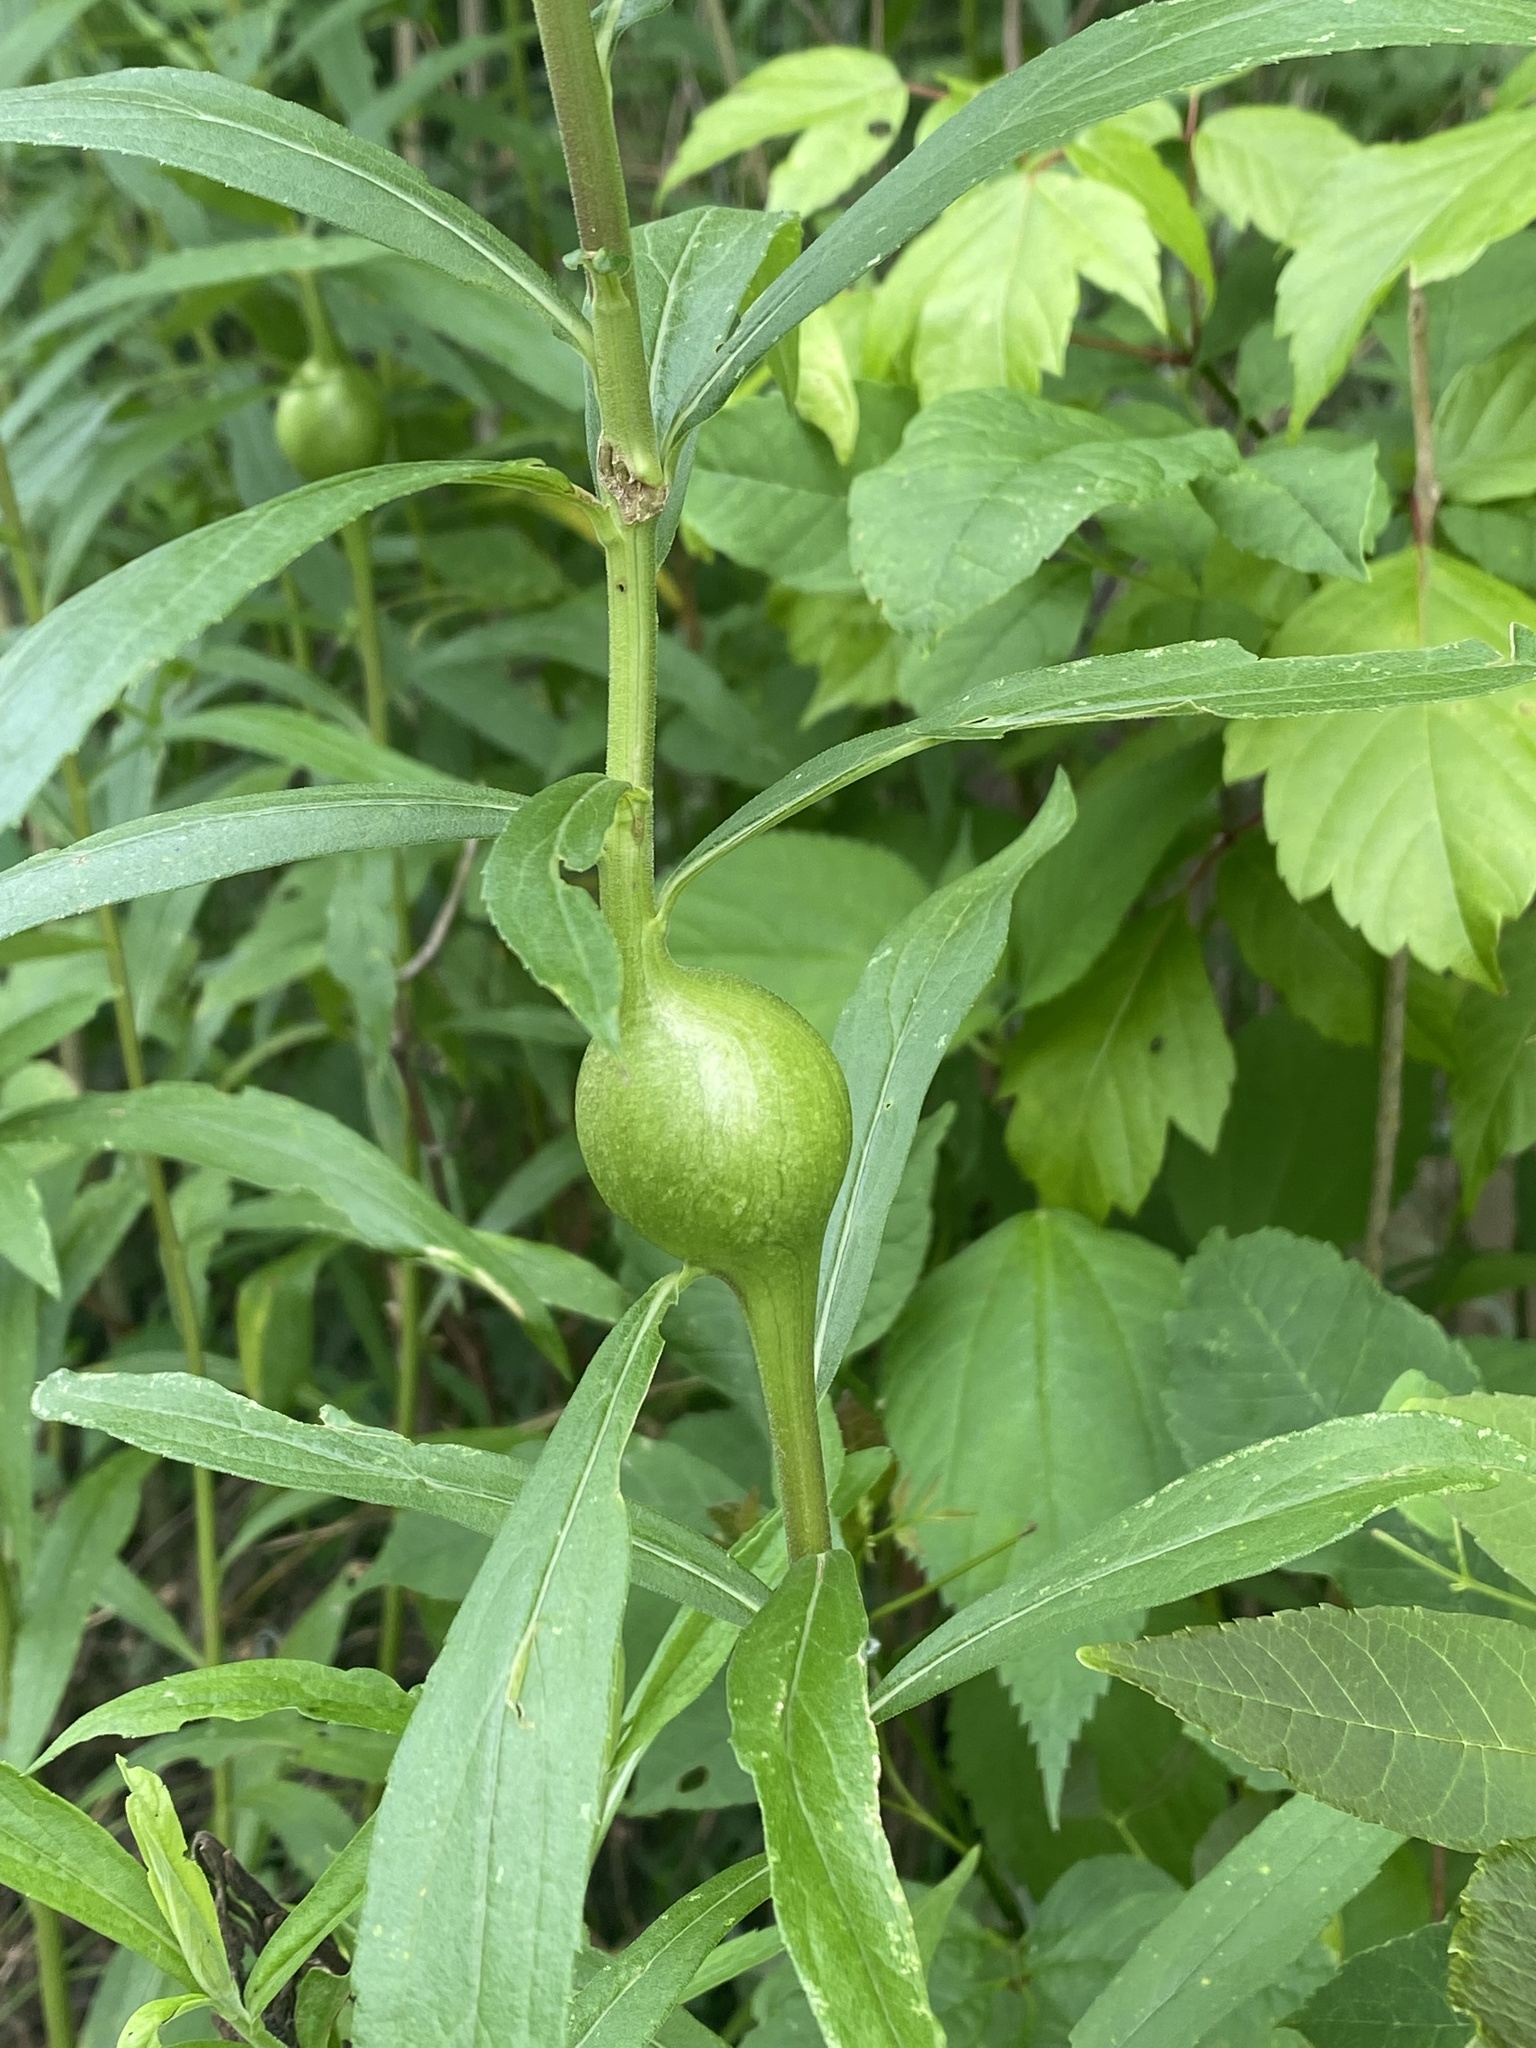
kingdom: Animalia
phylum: Arthropoda
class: Insecta
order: Diptera
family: Tephritidae
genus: Eurosta
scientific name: Eurosta solidaginis
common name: Goldenrod gall fly
